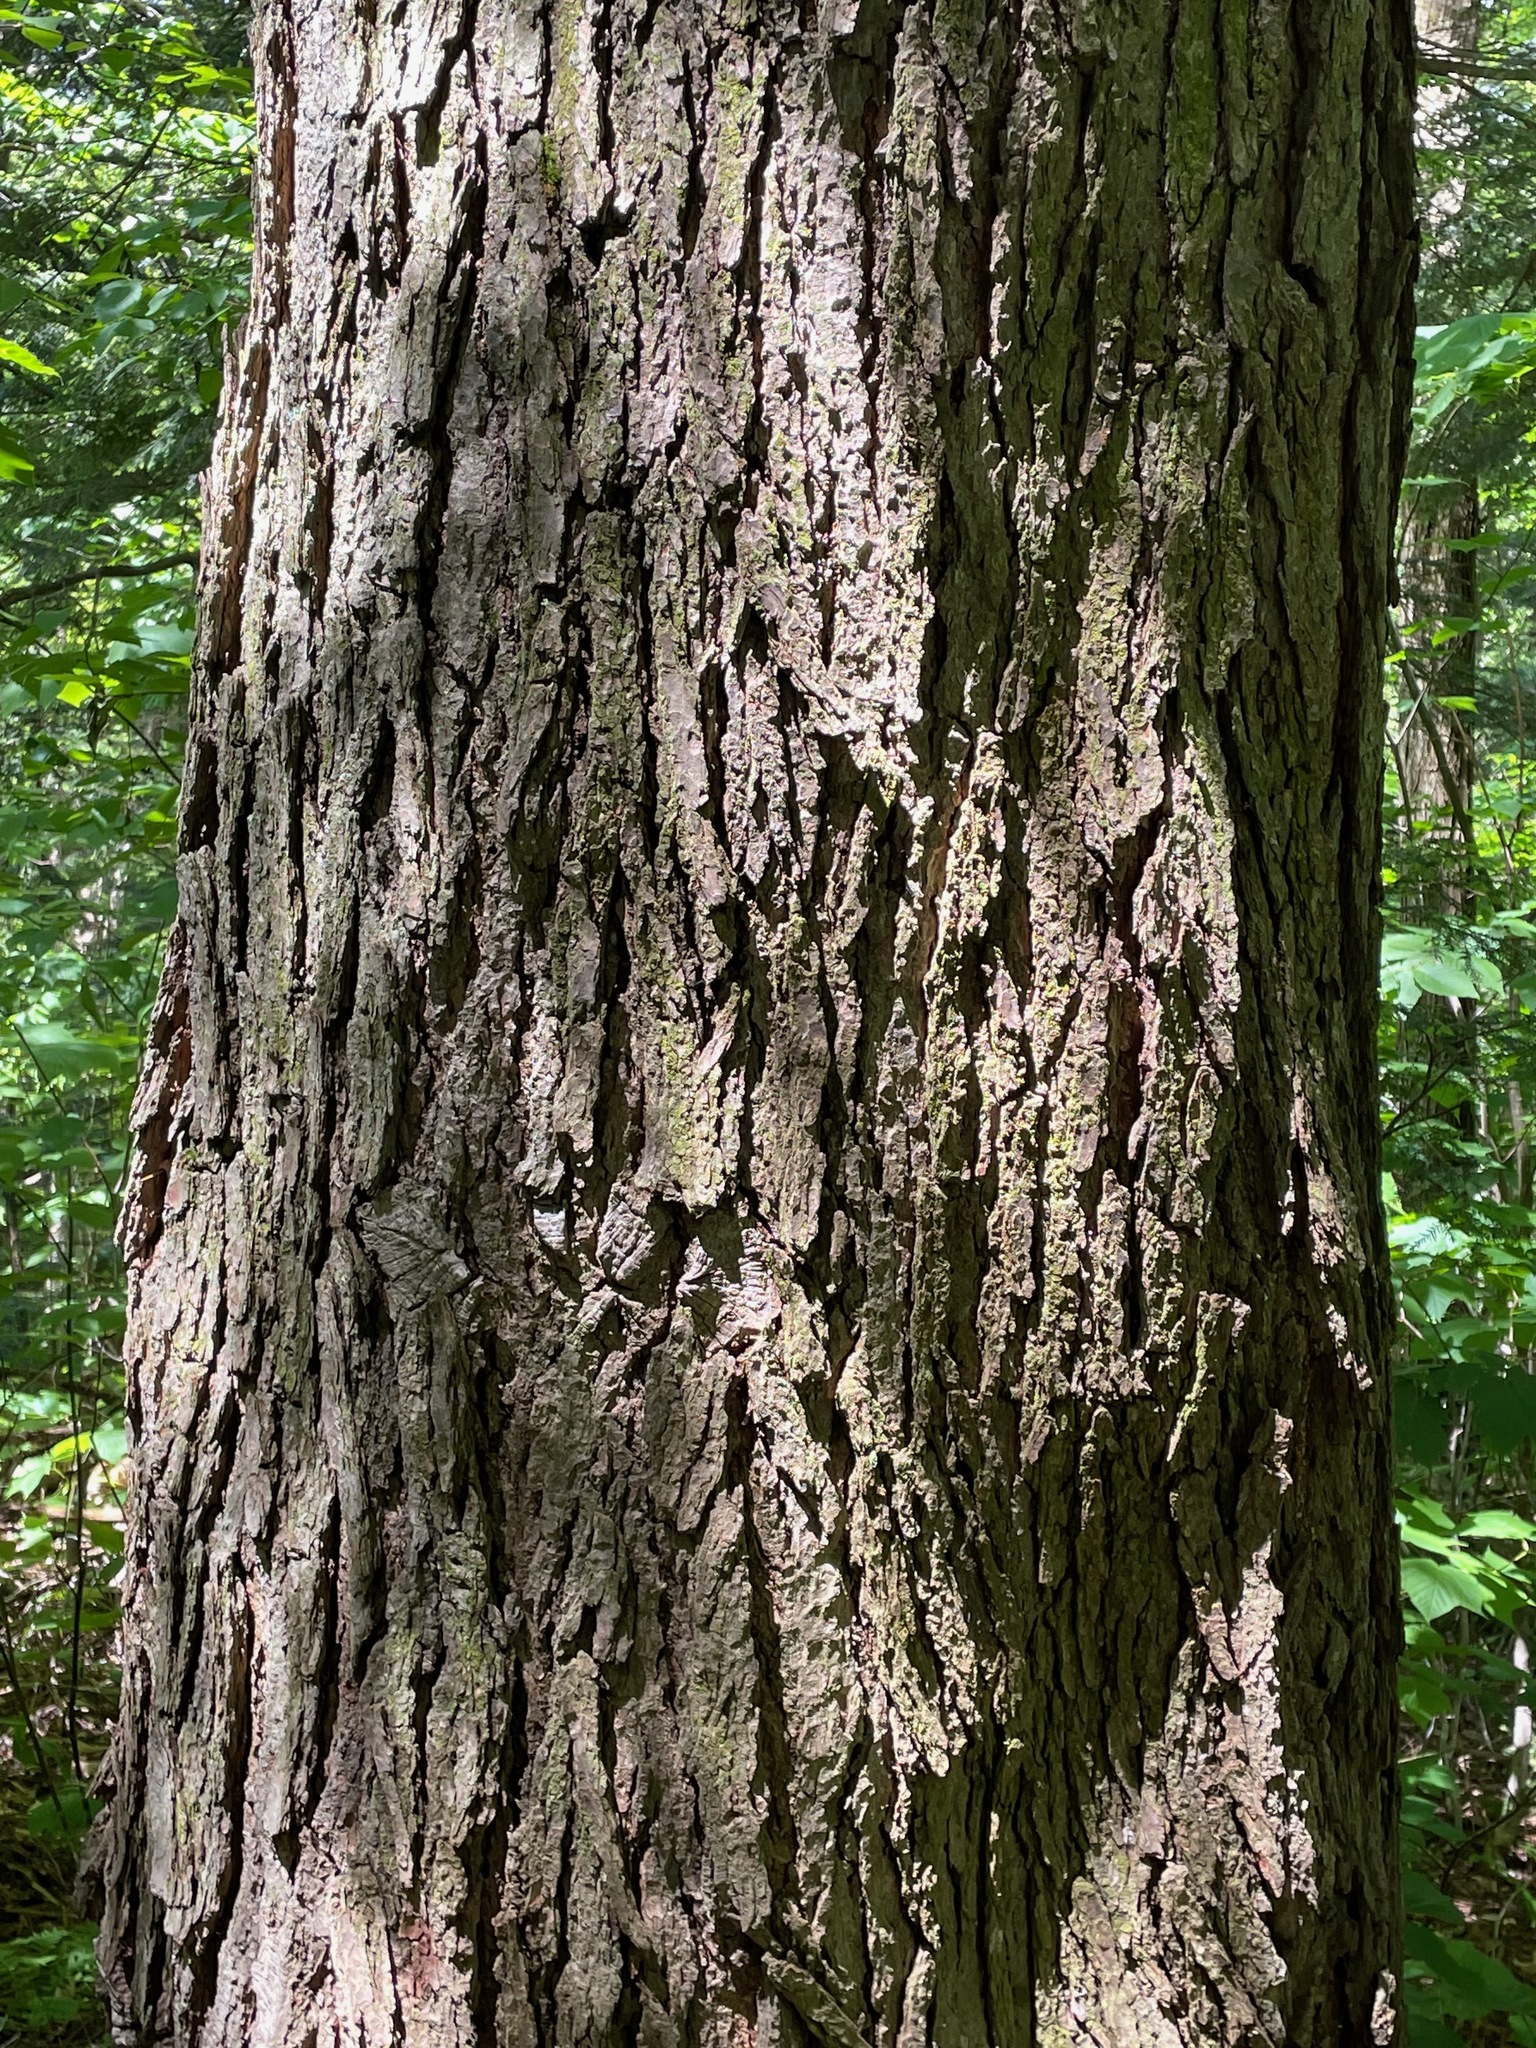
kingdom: Plantae
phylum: Tracheophyta
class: Pinopsida
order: Pinales
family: Pinaceae
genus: Tsuga
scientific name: Tsuga canadensis
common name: Eastern hemlock
